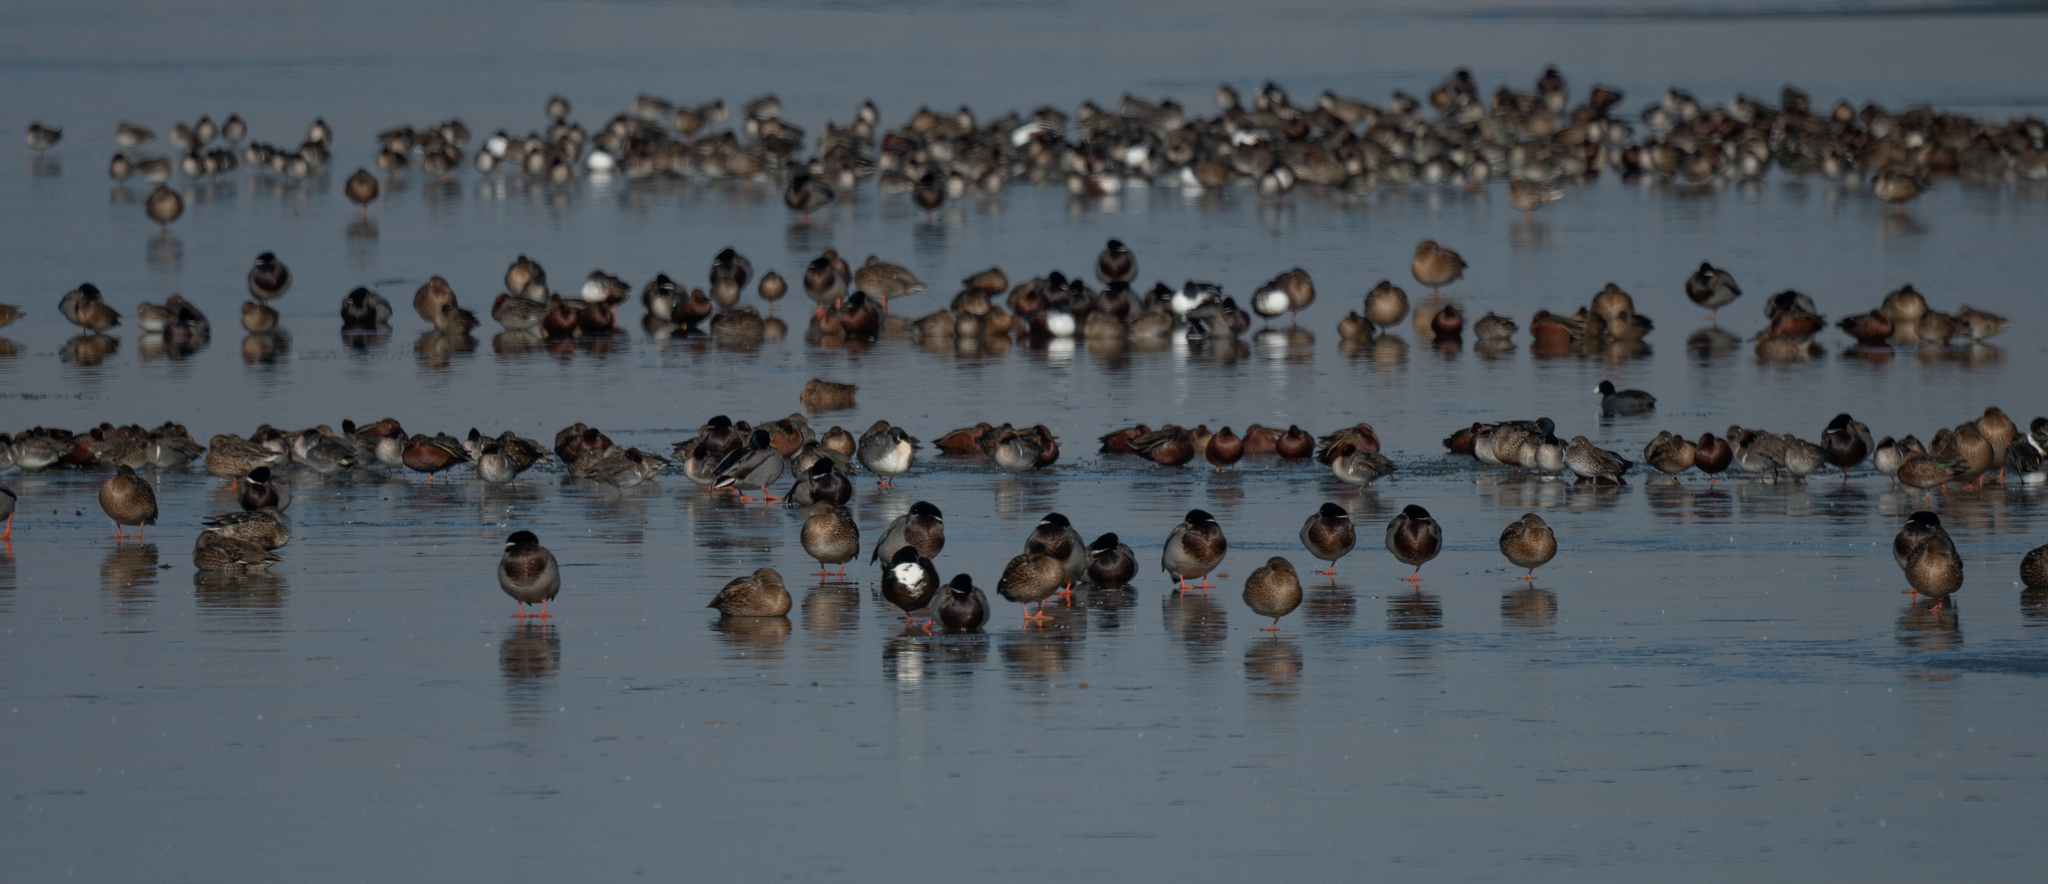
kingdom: Animalia
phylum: Chordata
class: Aves
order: Anseriformes
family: Anatidae
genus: Spatula
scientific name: Spatula cyanoptera
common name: Cinnamon teal
